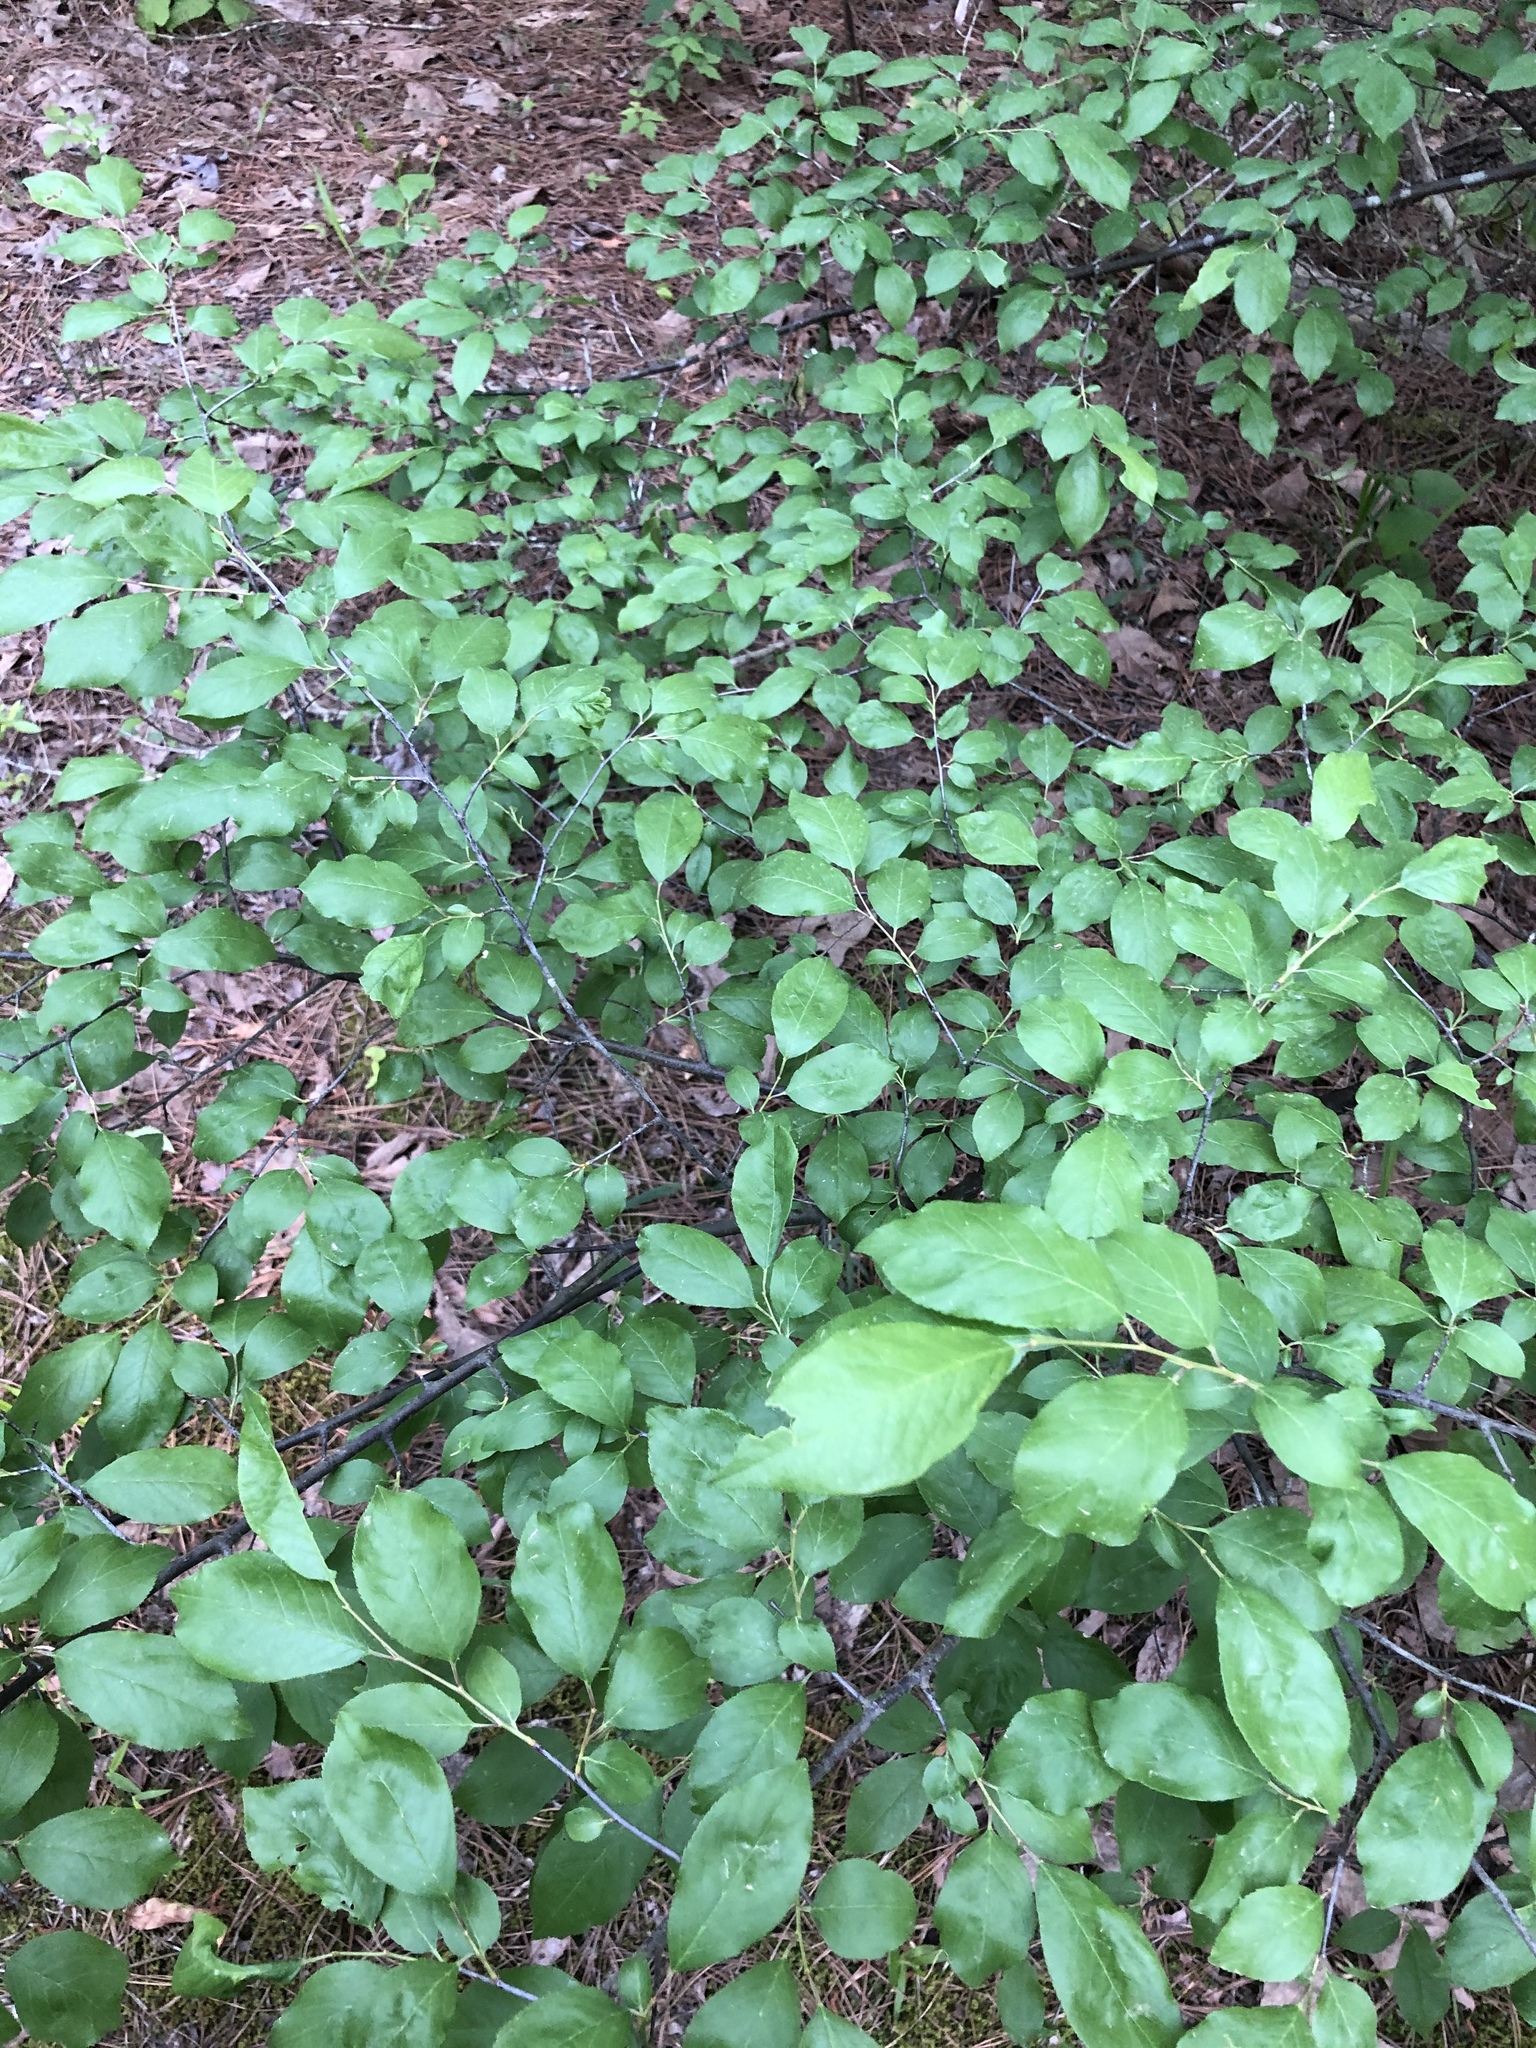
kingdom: Plantae
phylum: Tracheophyta
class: Magnoliopsida
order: Rosales
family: Rosaceae
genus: Prunus
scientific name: Prunus umbellata
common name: Allegheny plum
